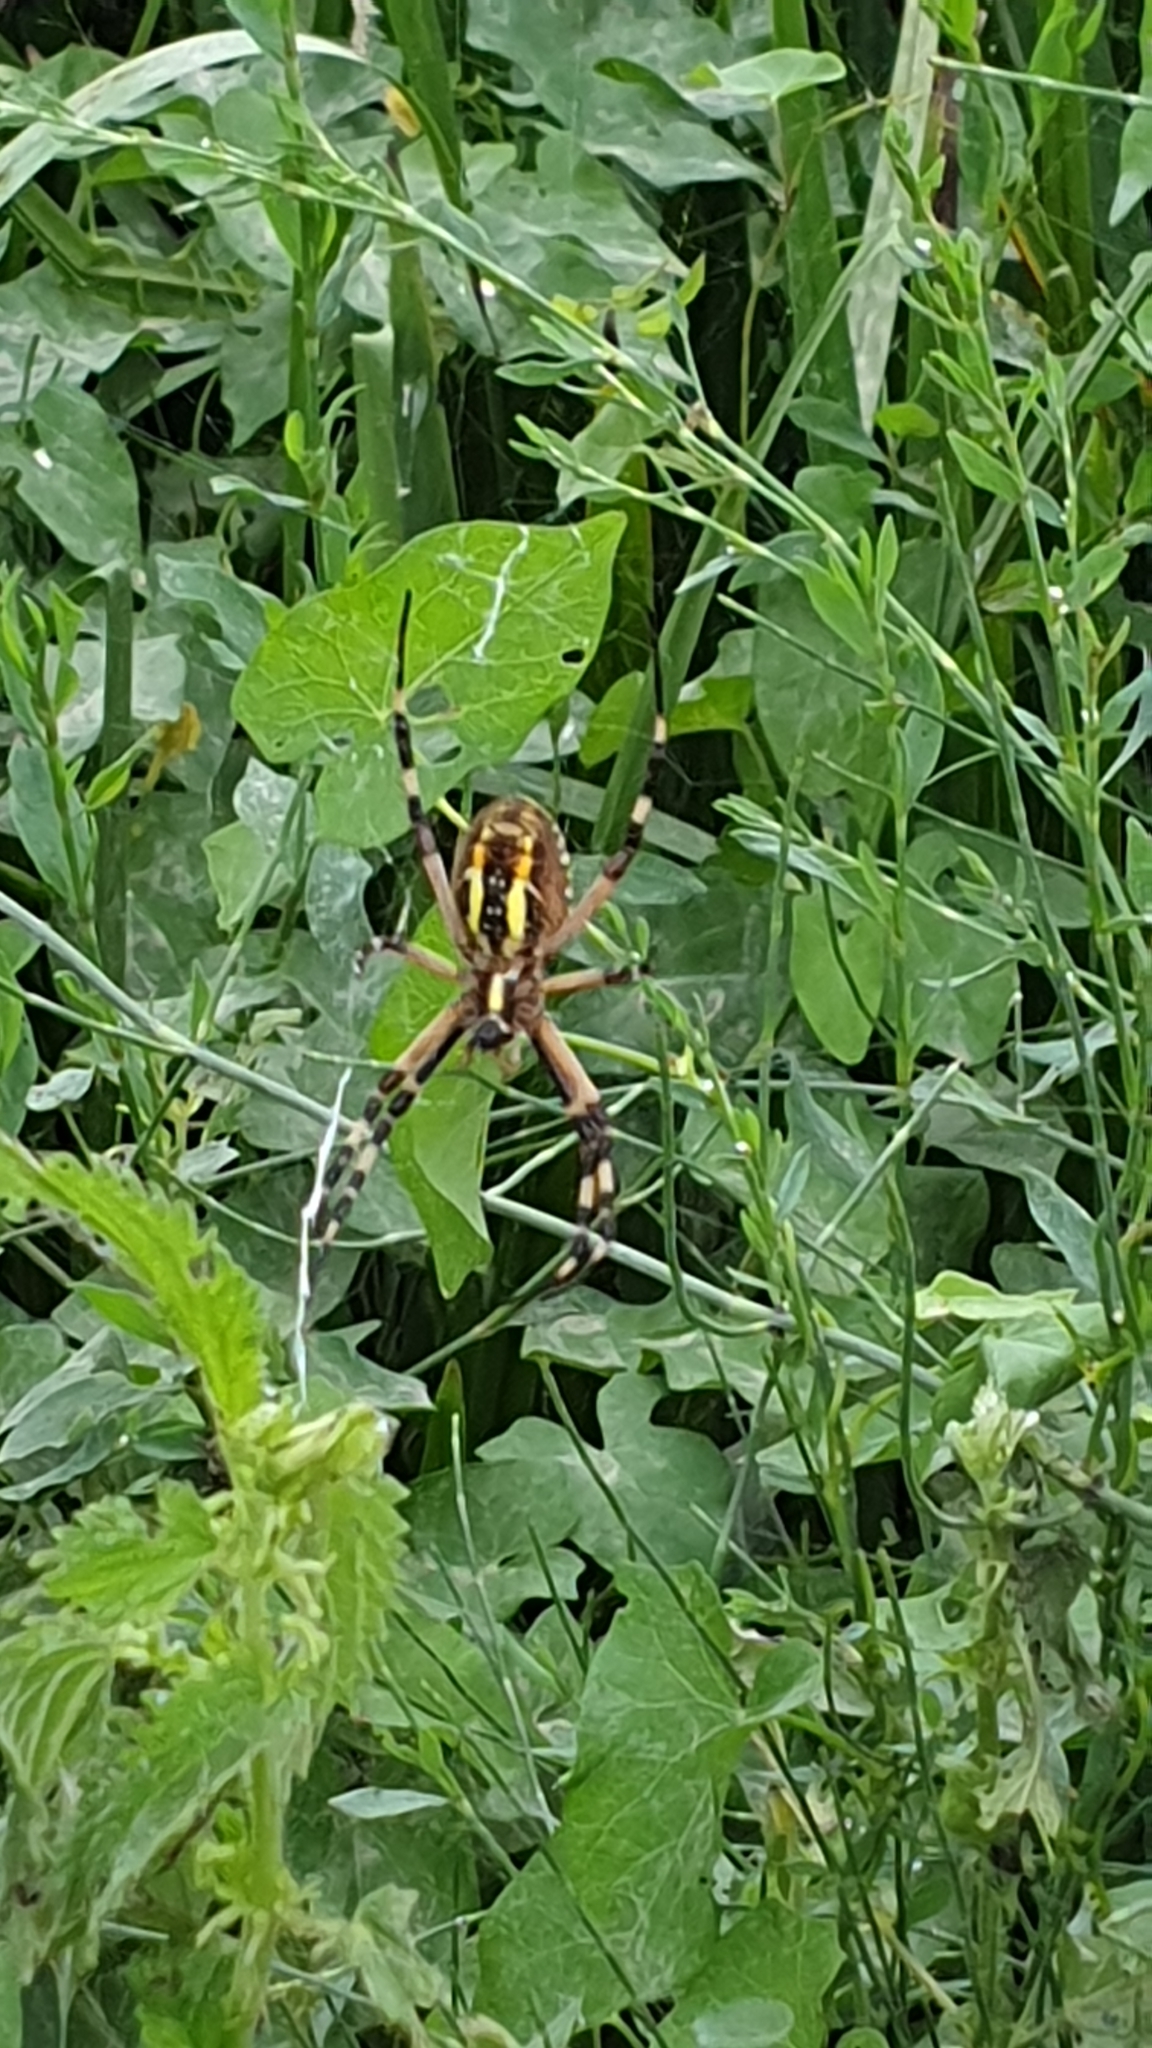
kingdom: Animalia
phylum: Arthropoda
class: Arachnida
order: Araneae
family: Araneidae
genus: Argiope
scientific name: Argiope bruennichi
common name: Wasp spider
